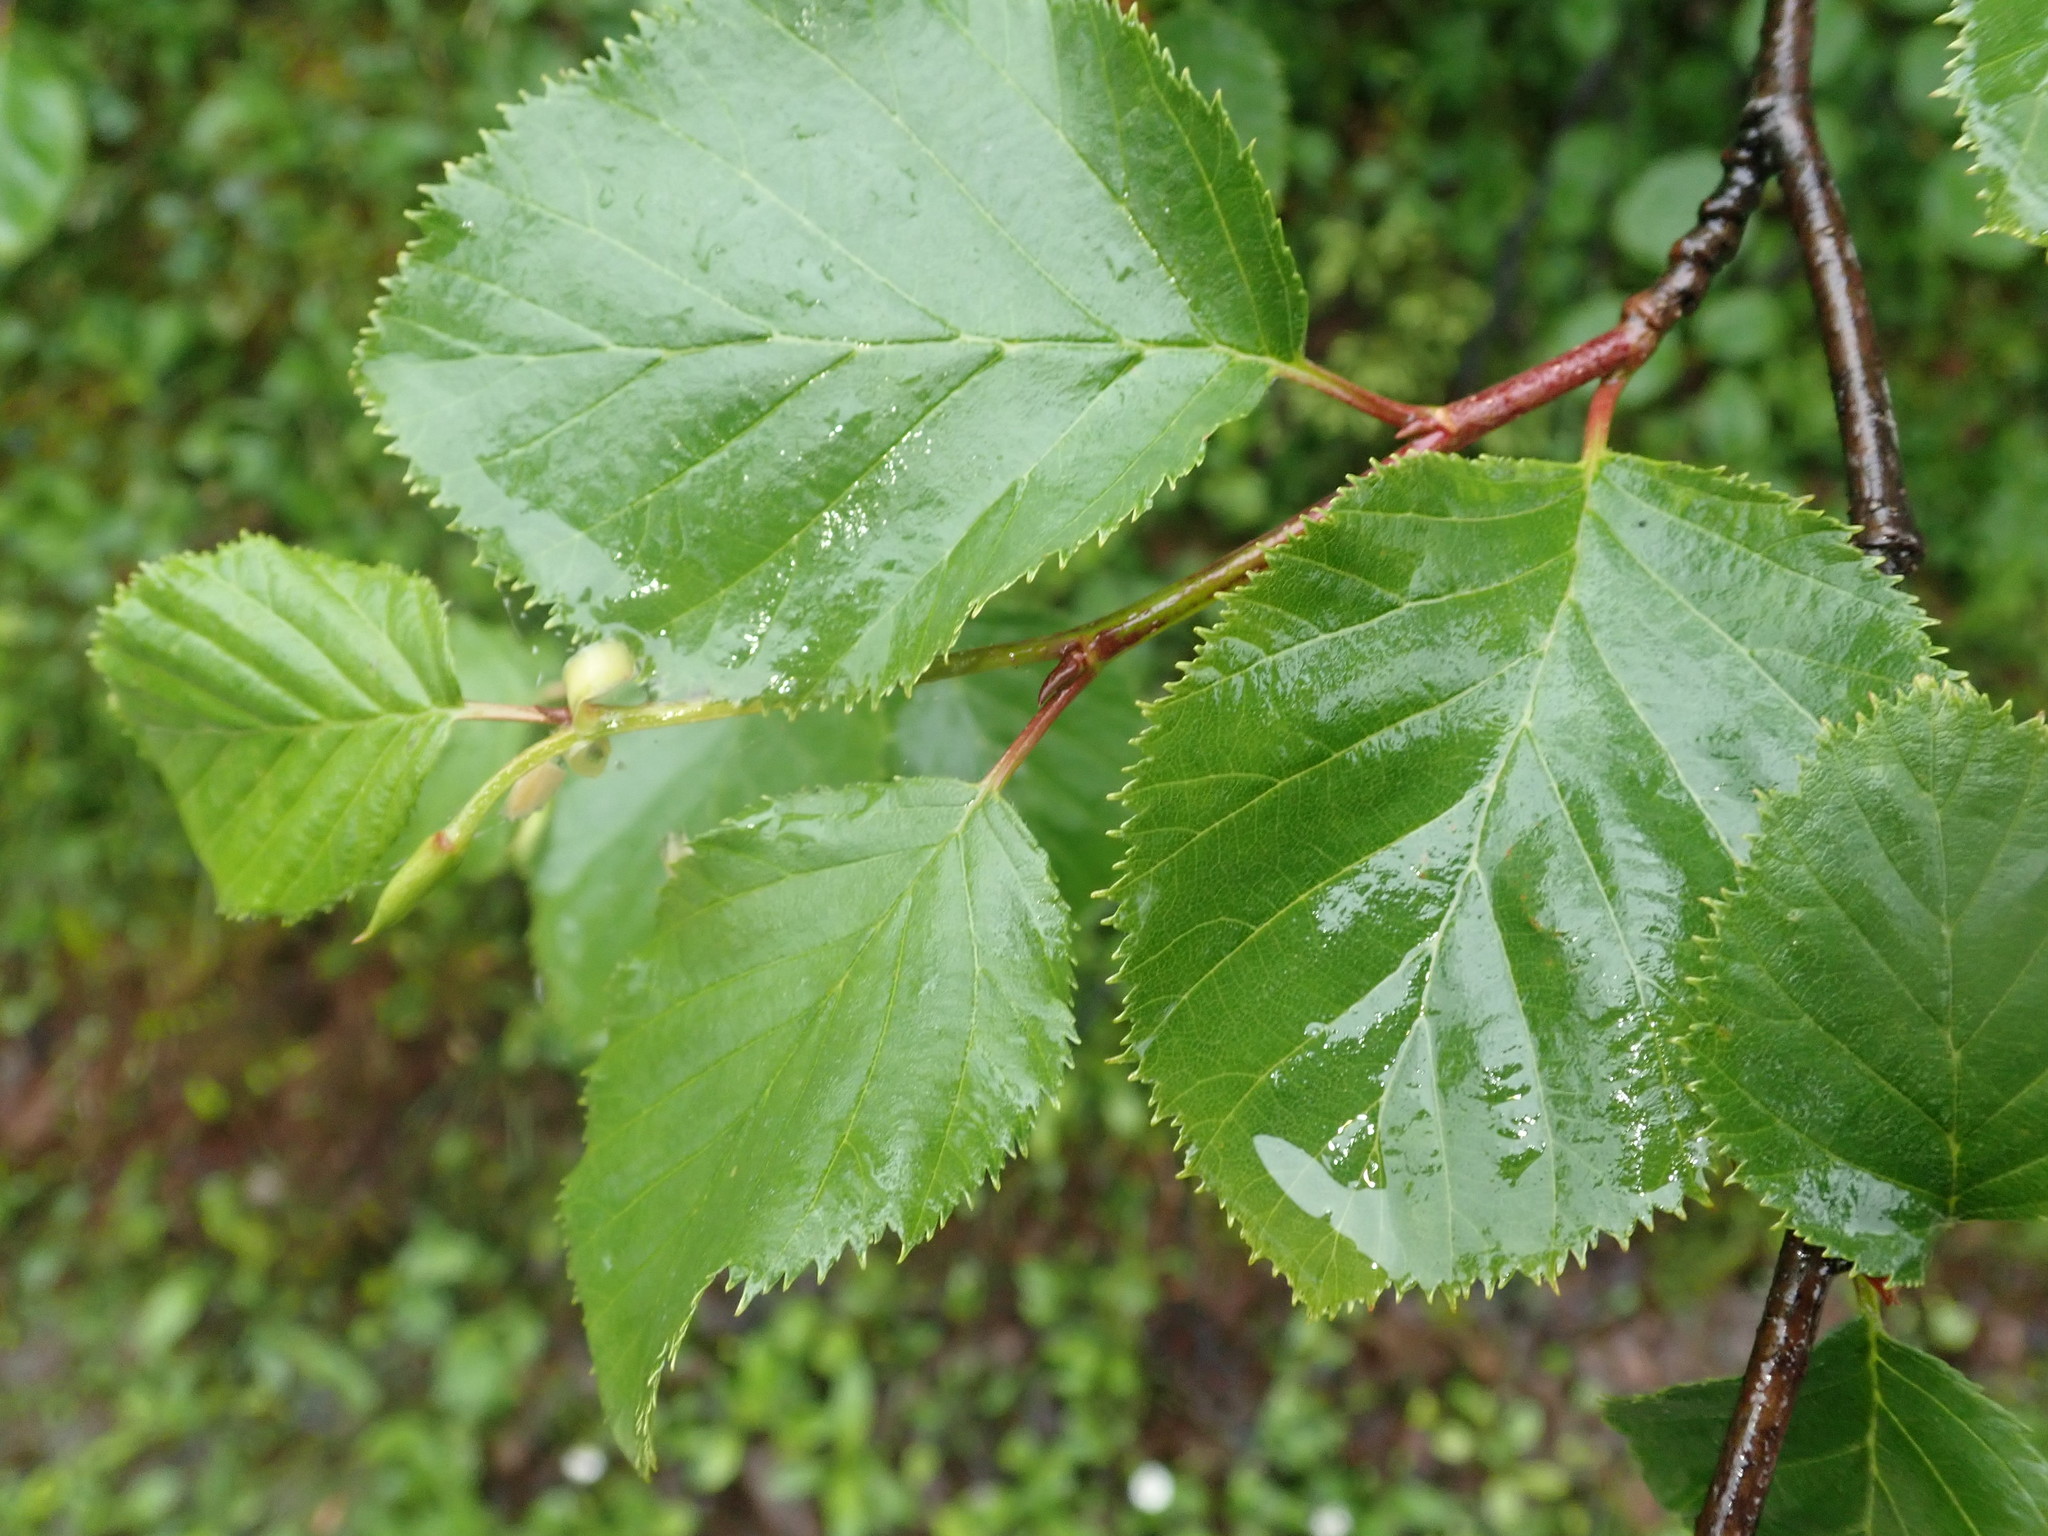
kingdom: Plantae
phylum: Tracheophyta
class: Magnoliopsida
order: Fagales
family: Betulaceae
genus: Alnus
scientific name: Alnus alnobetula
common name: Green alder
